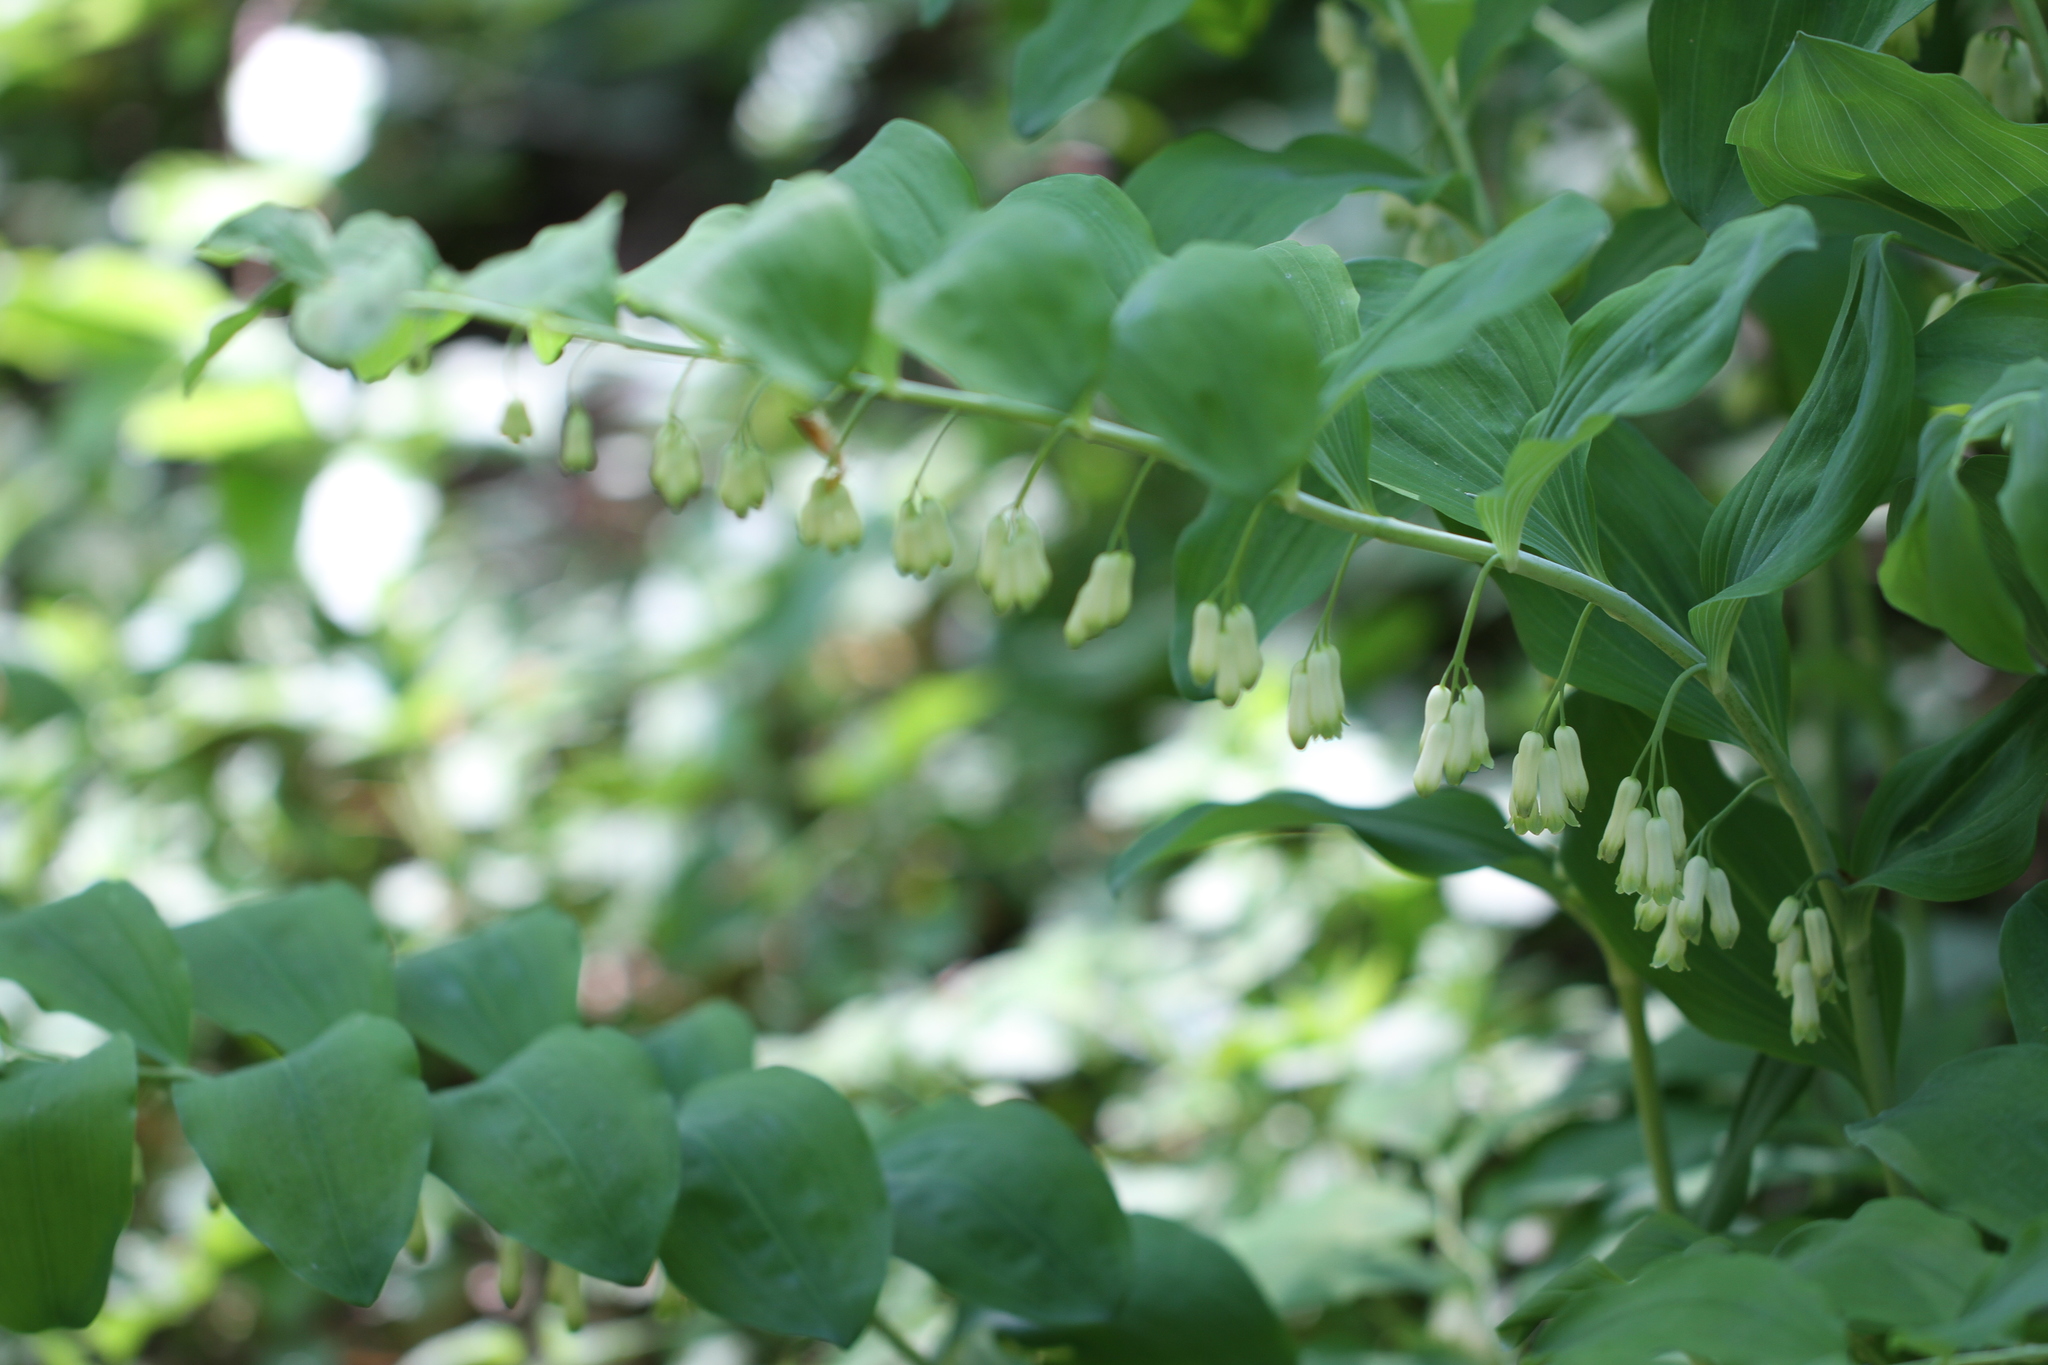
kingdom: Plantae
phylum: Tracheophyta
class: Liliopsida
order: Asparagales
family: Asparagaceae
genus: Polygonatum
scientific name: Polygonatum multiflorum
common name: Solomon's-seal
